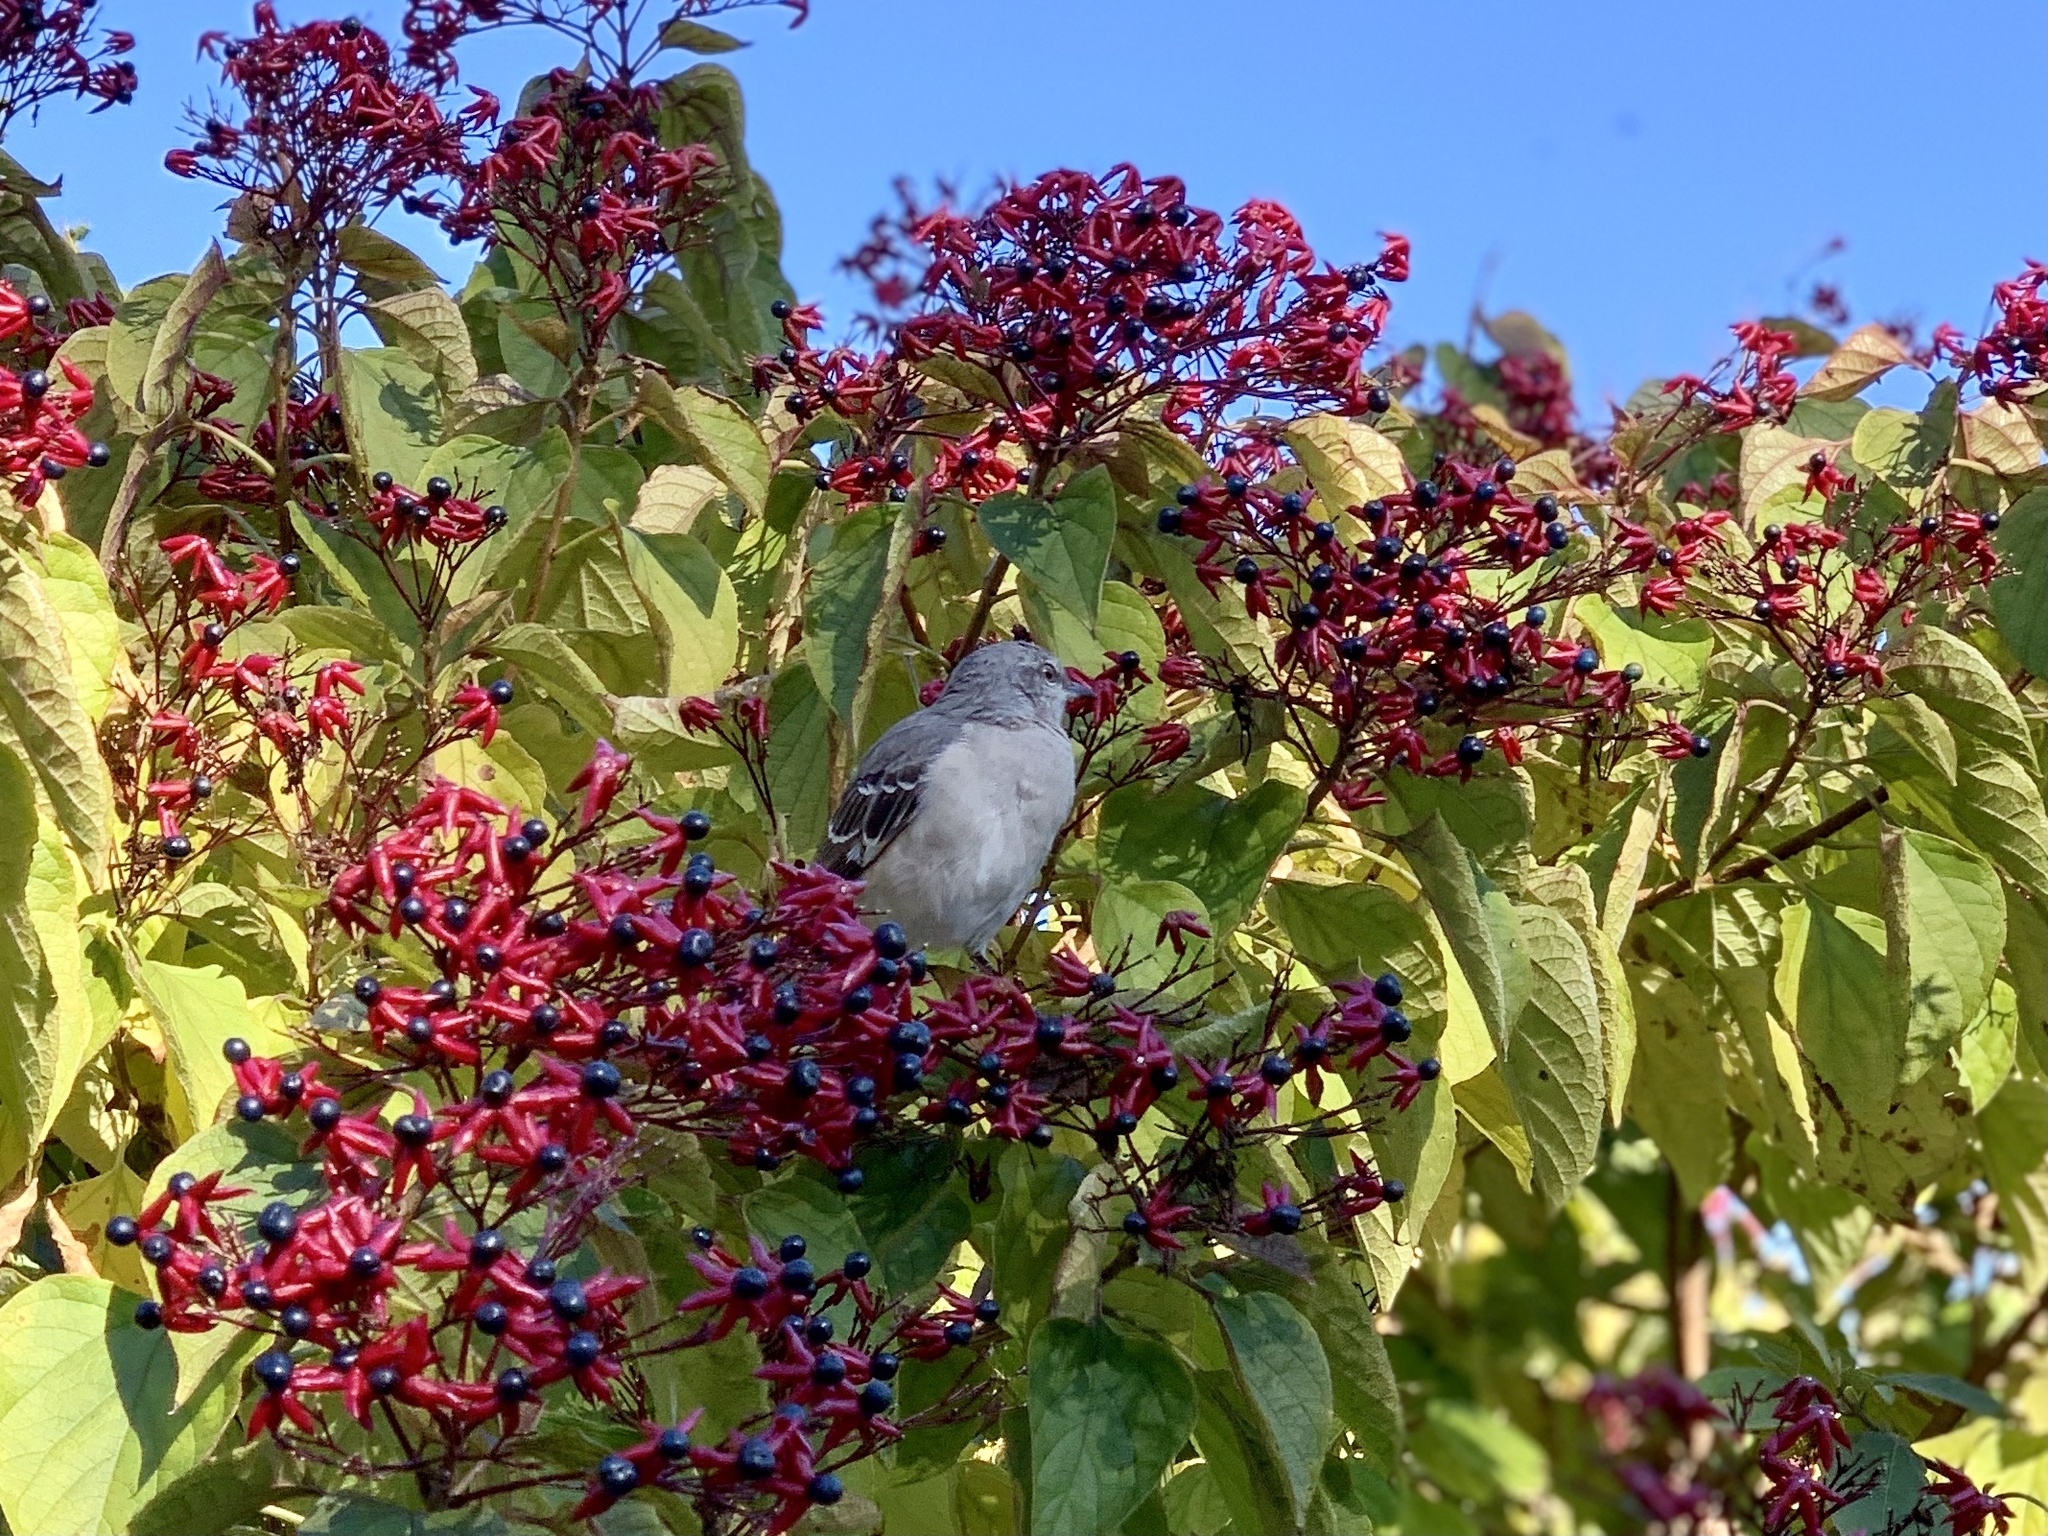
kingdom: Animalia
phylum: Chordata
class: Aves
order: Passeriformes
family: Mimidae
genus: Mimus
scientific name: Mimus polyglottos
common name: Northern mockingbird
